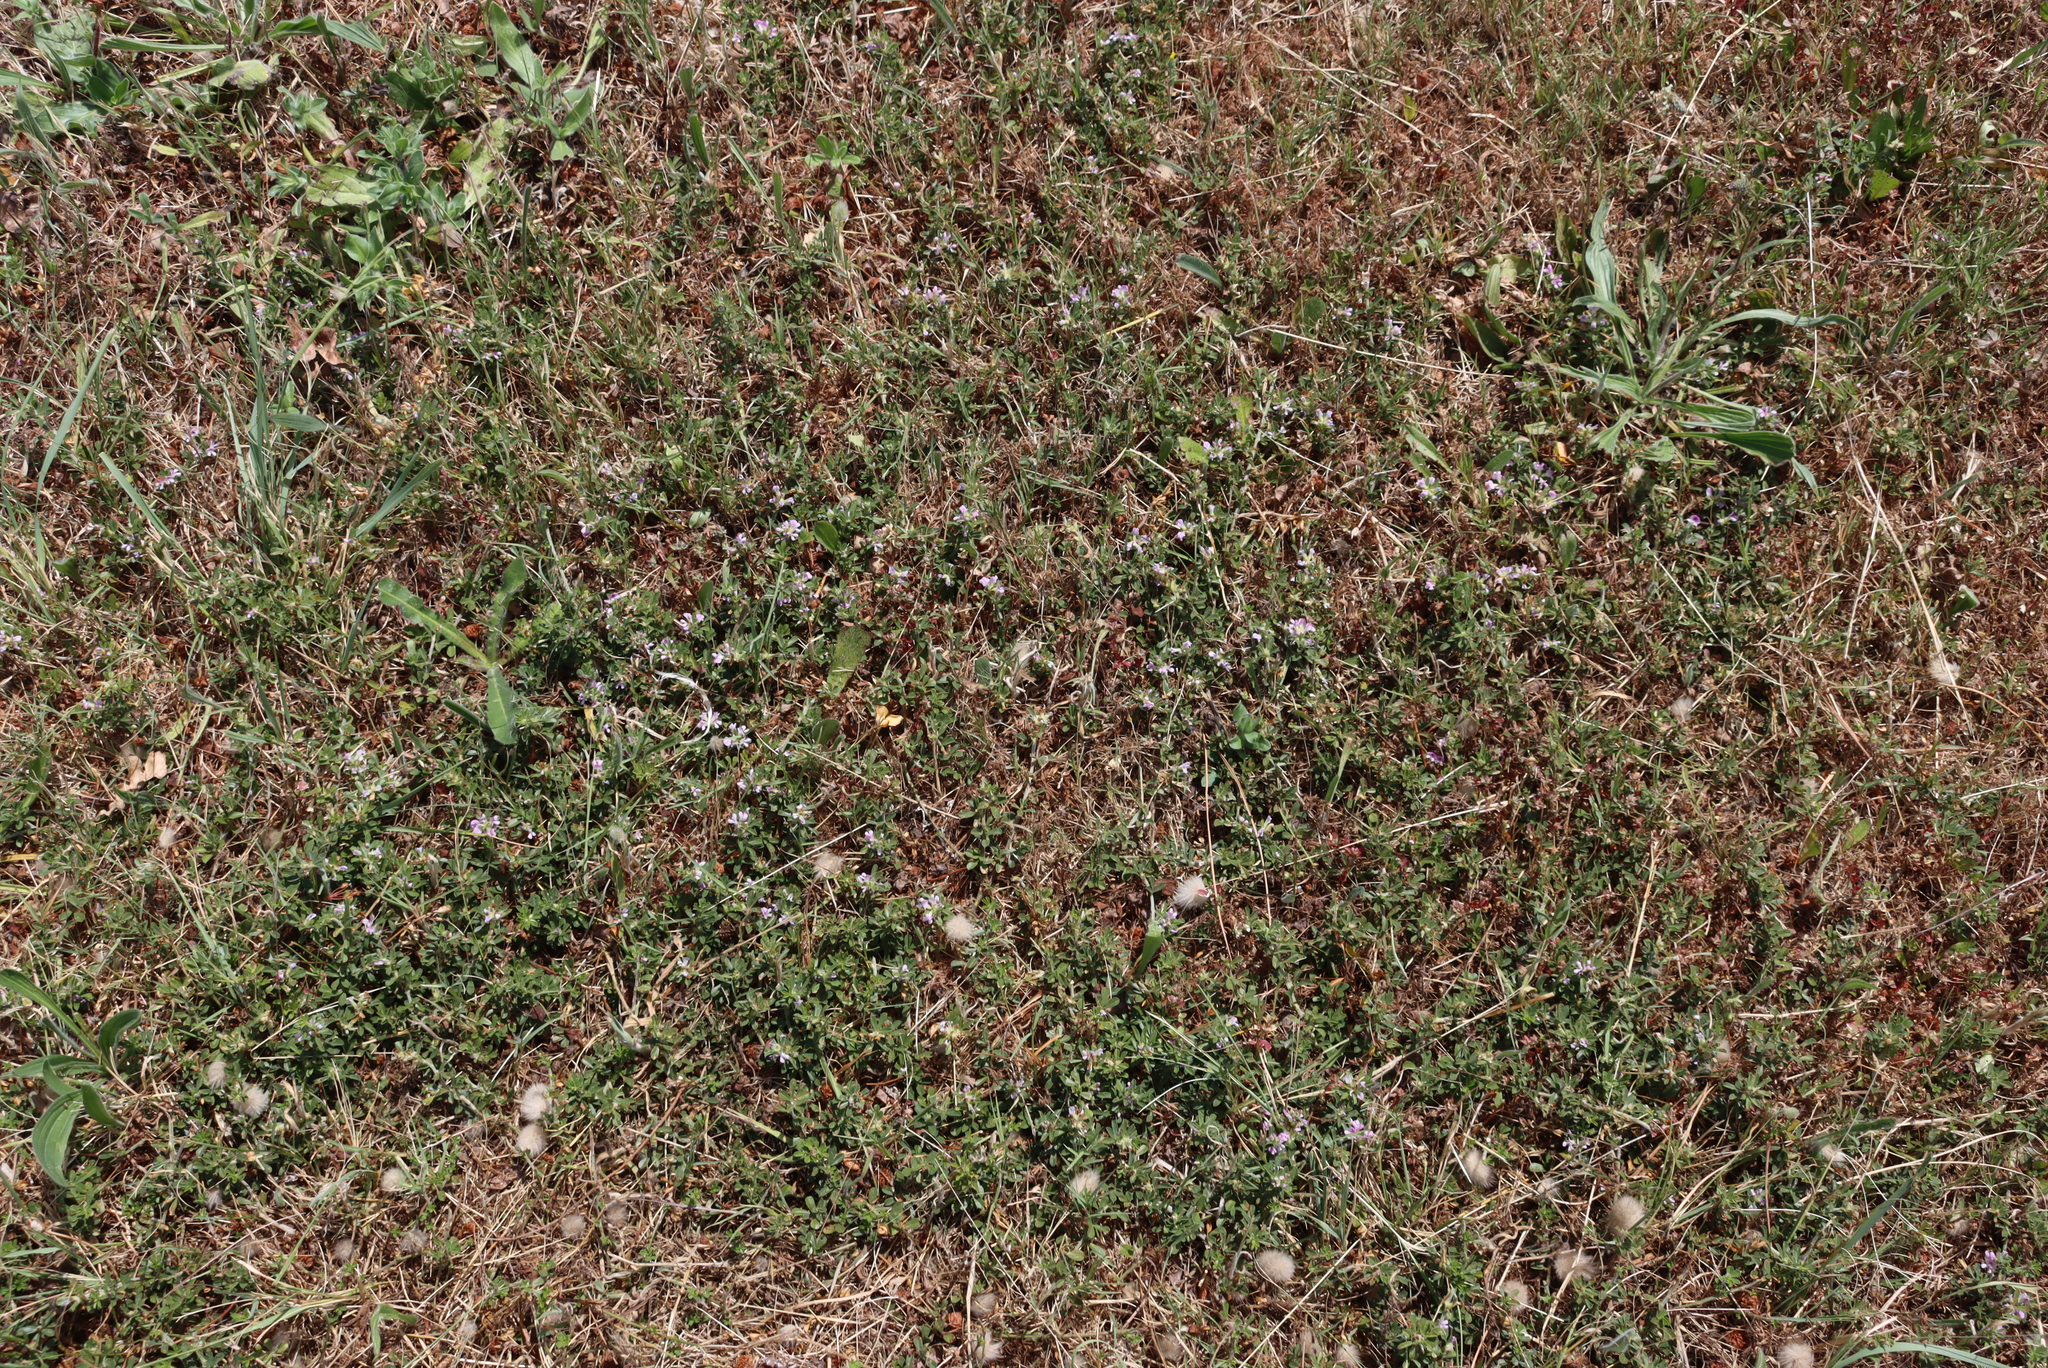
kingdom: Plantae
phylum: Tracheophyta
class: Magnoliopsida
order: Fabales
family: Fabaceae
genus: Psoralea
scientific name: Psoralea
